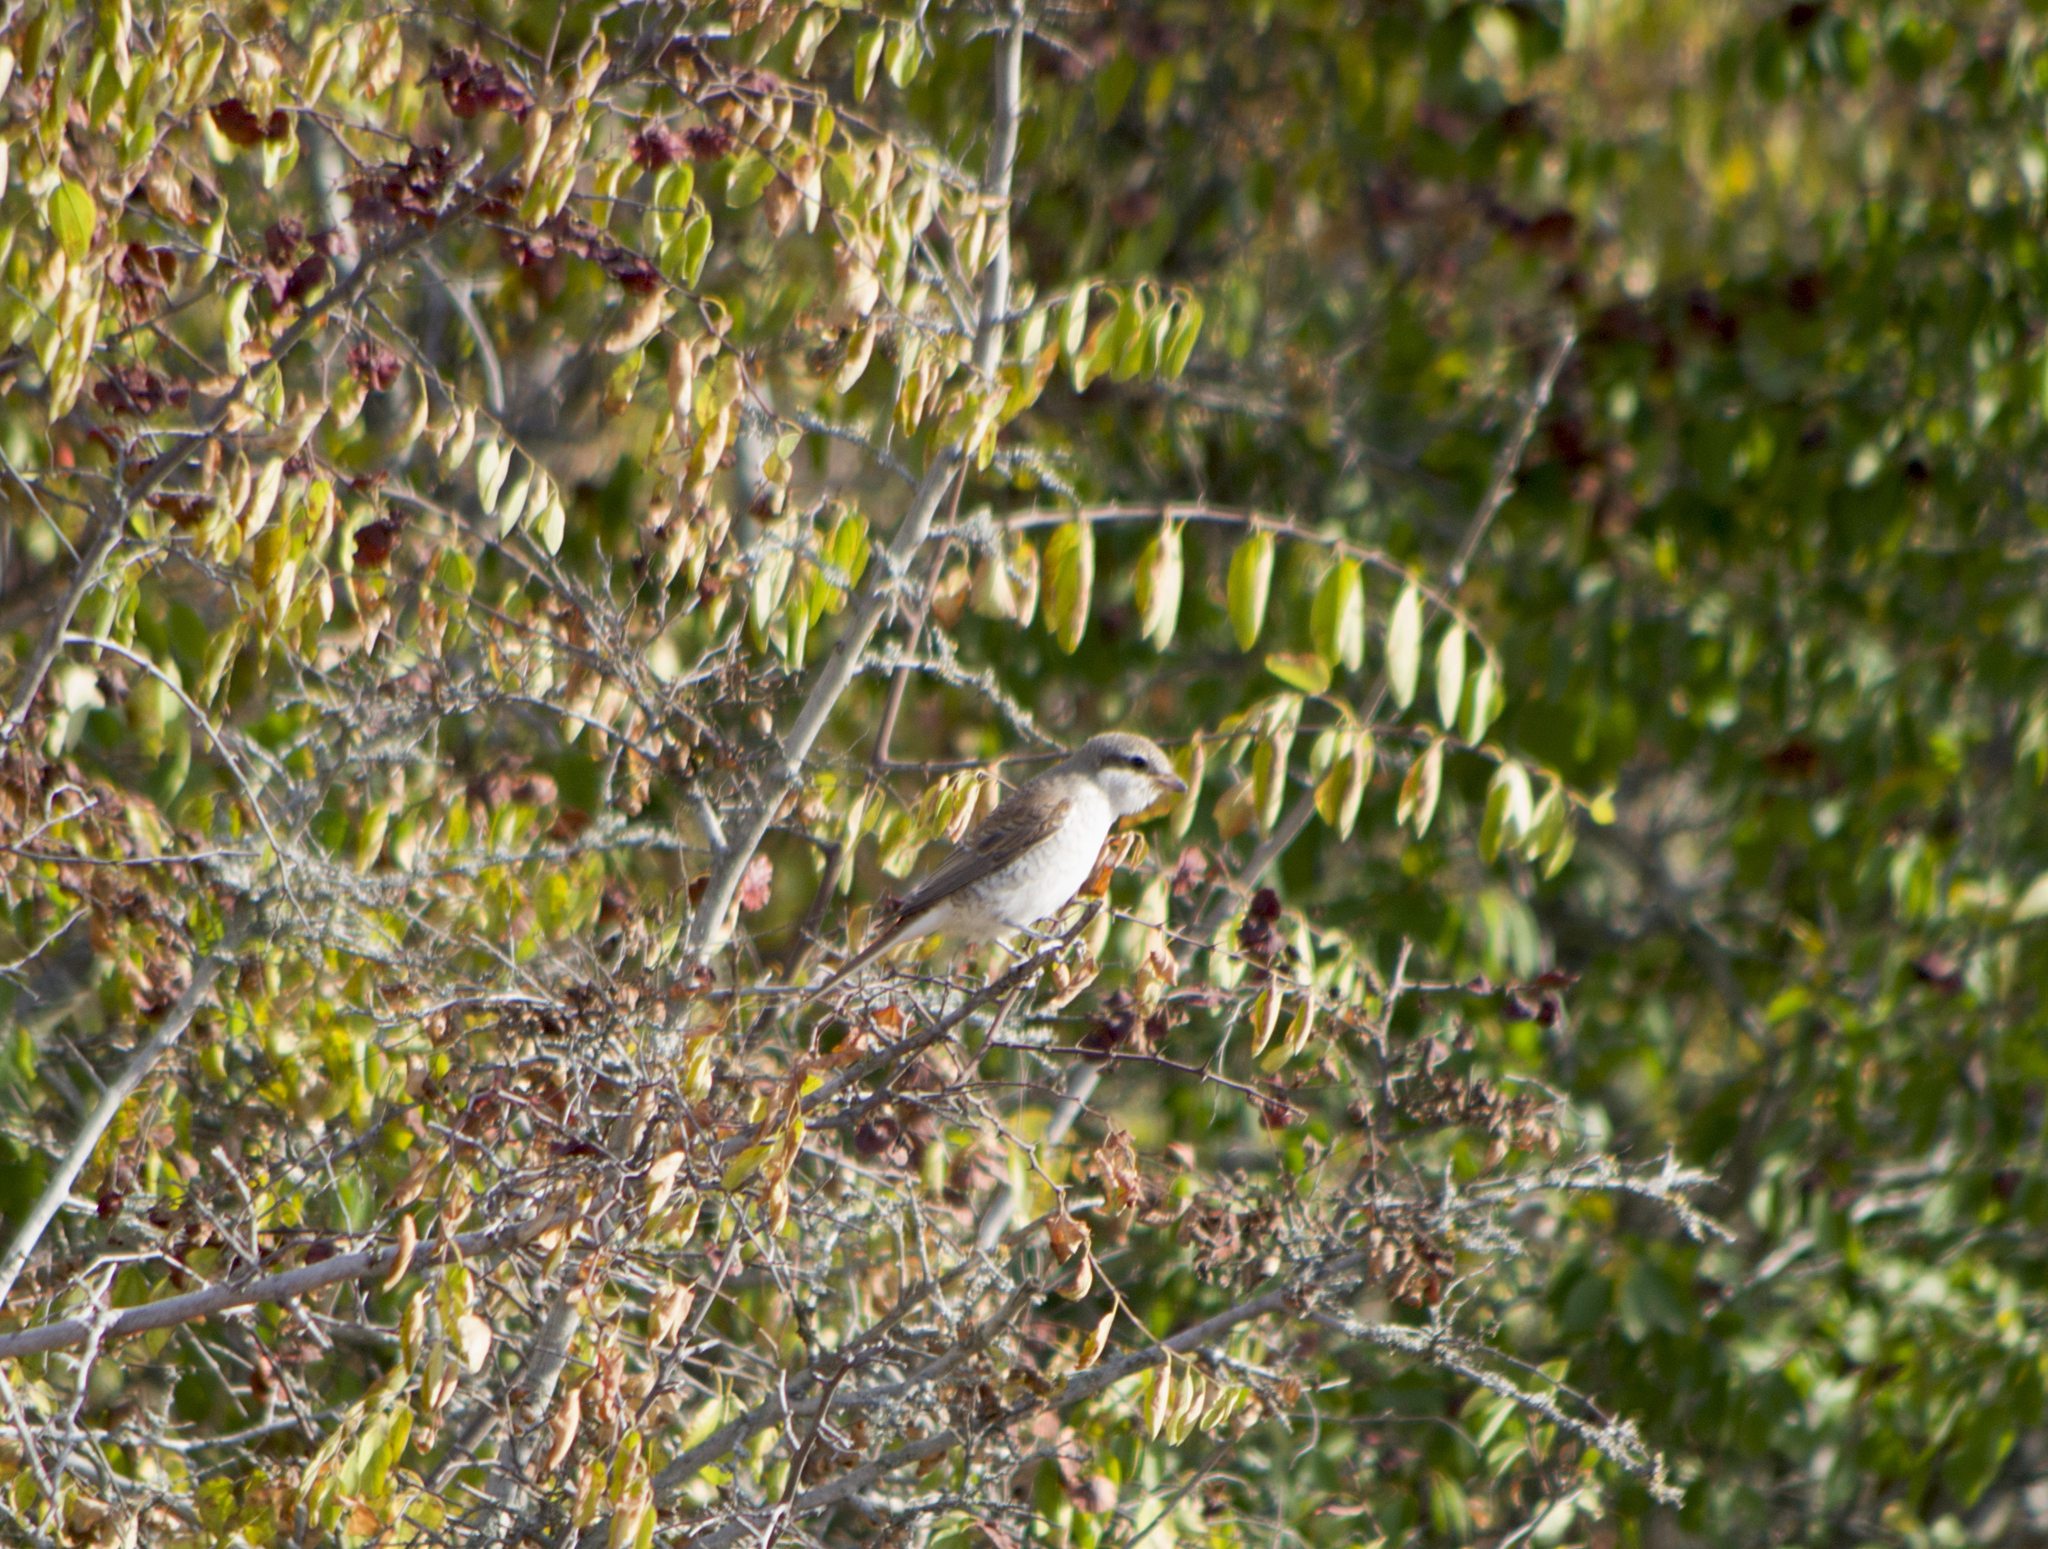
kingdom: Animalia
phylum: Chordata
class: Aves
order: Passeriformes
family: Laniidae
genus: Lanius
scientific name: Lanius collurio
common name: Red-backed shrike
